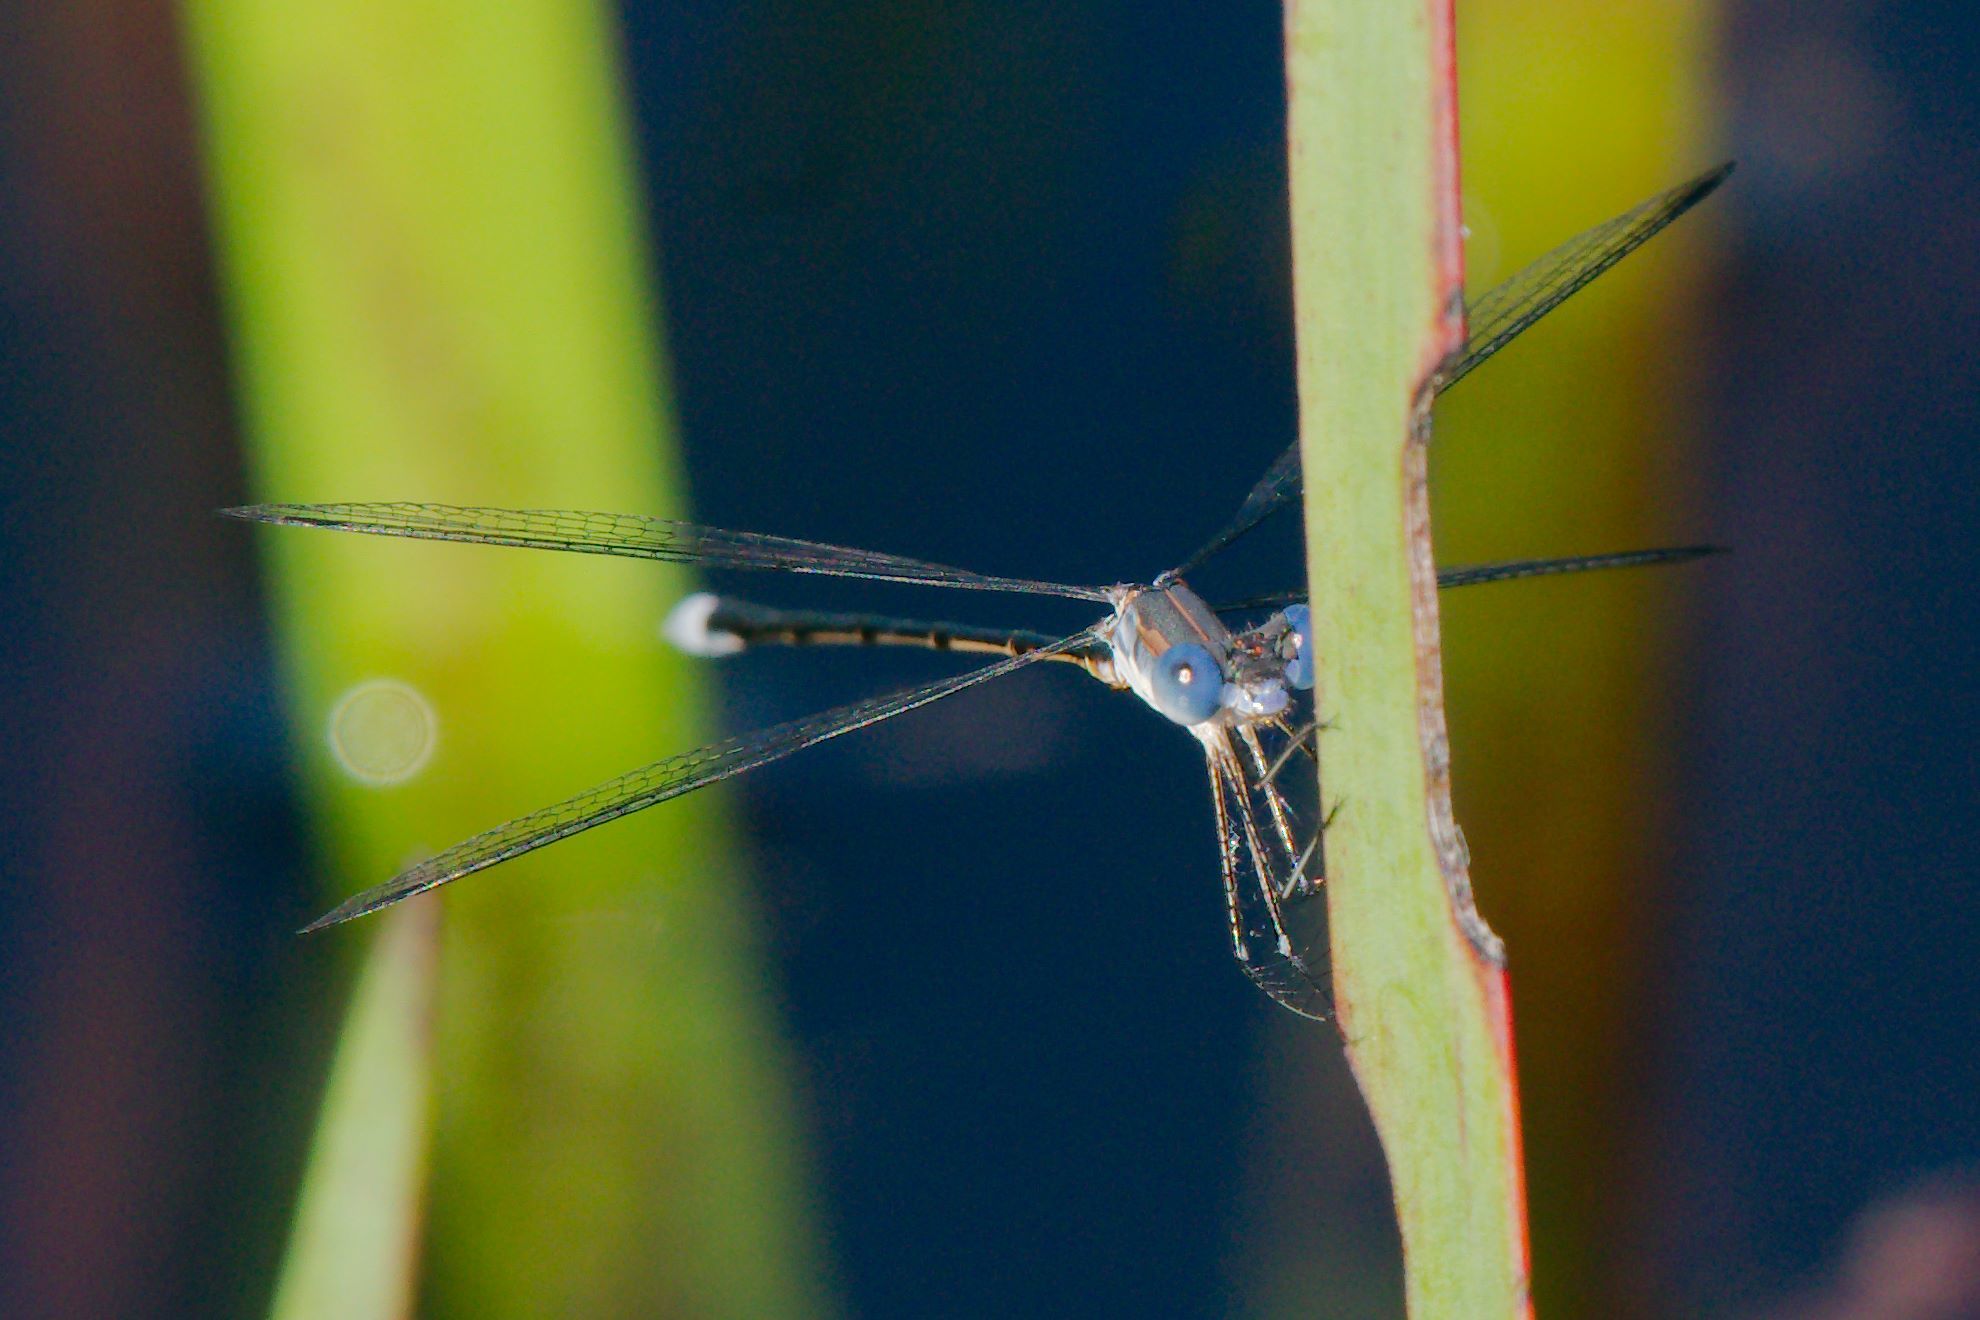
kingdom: Animalia
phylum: Arthropoda
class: Insecta
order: Odonata
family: Lestidae
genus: Lestes
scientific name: Lestes vidua
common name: Carolina spreadwing
